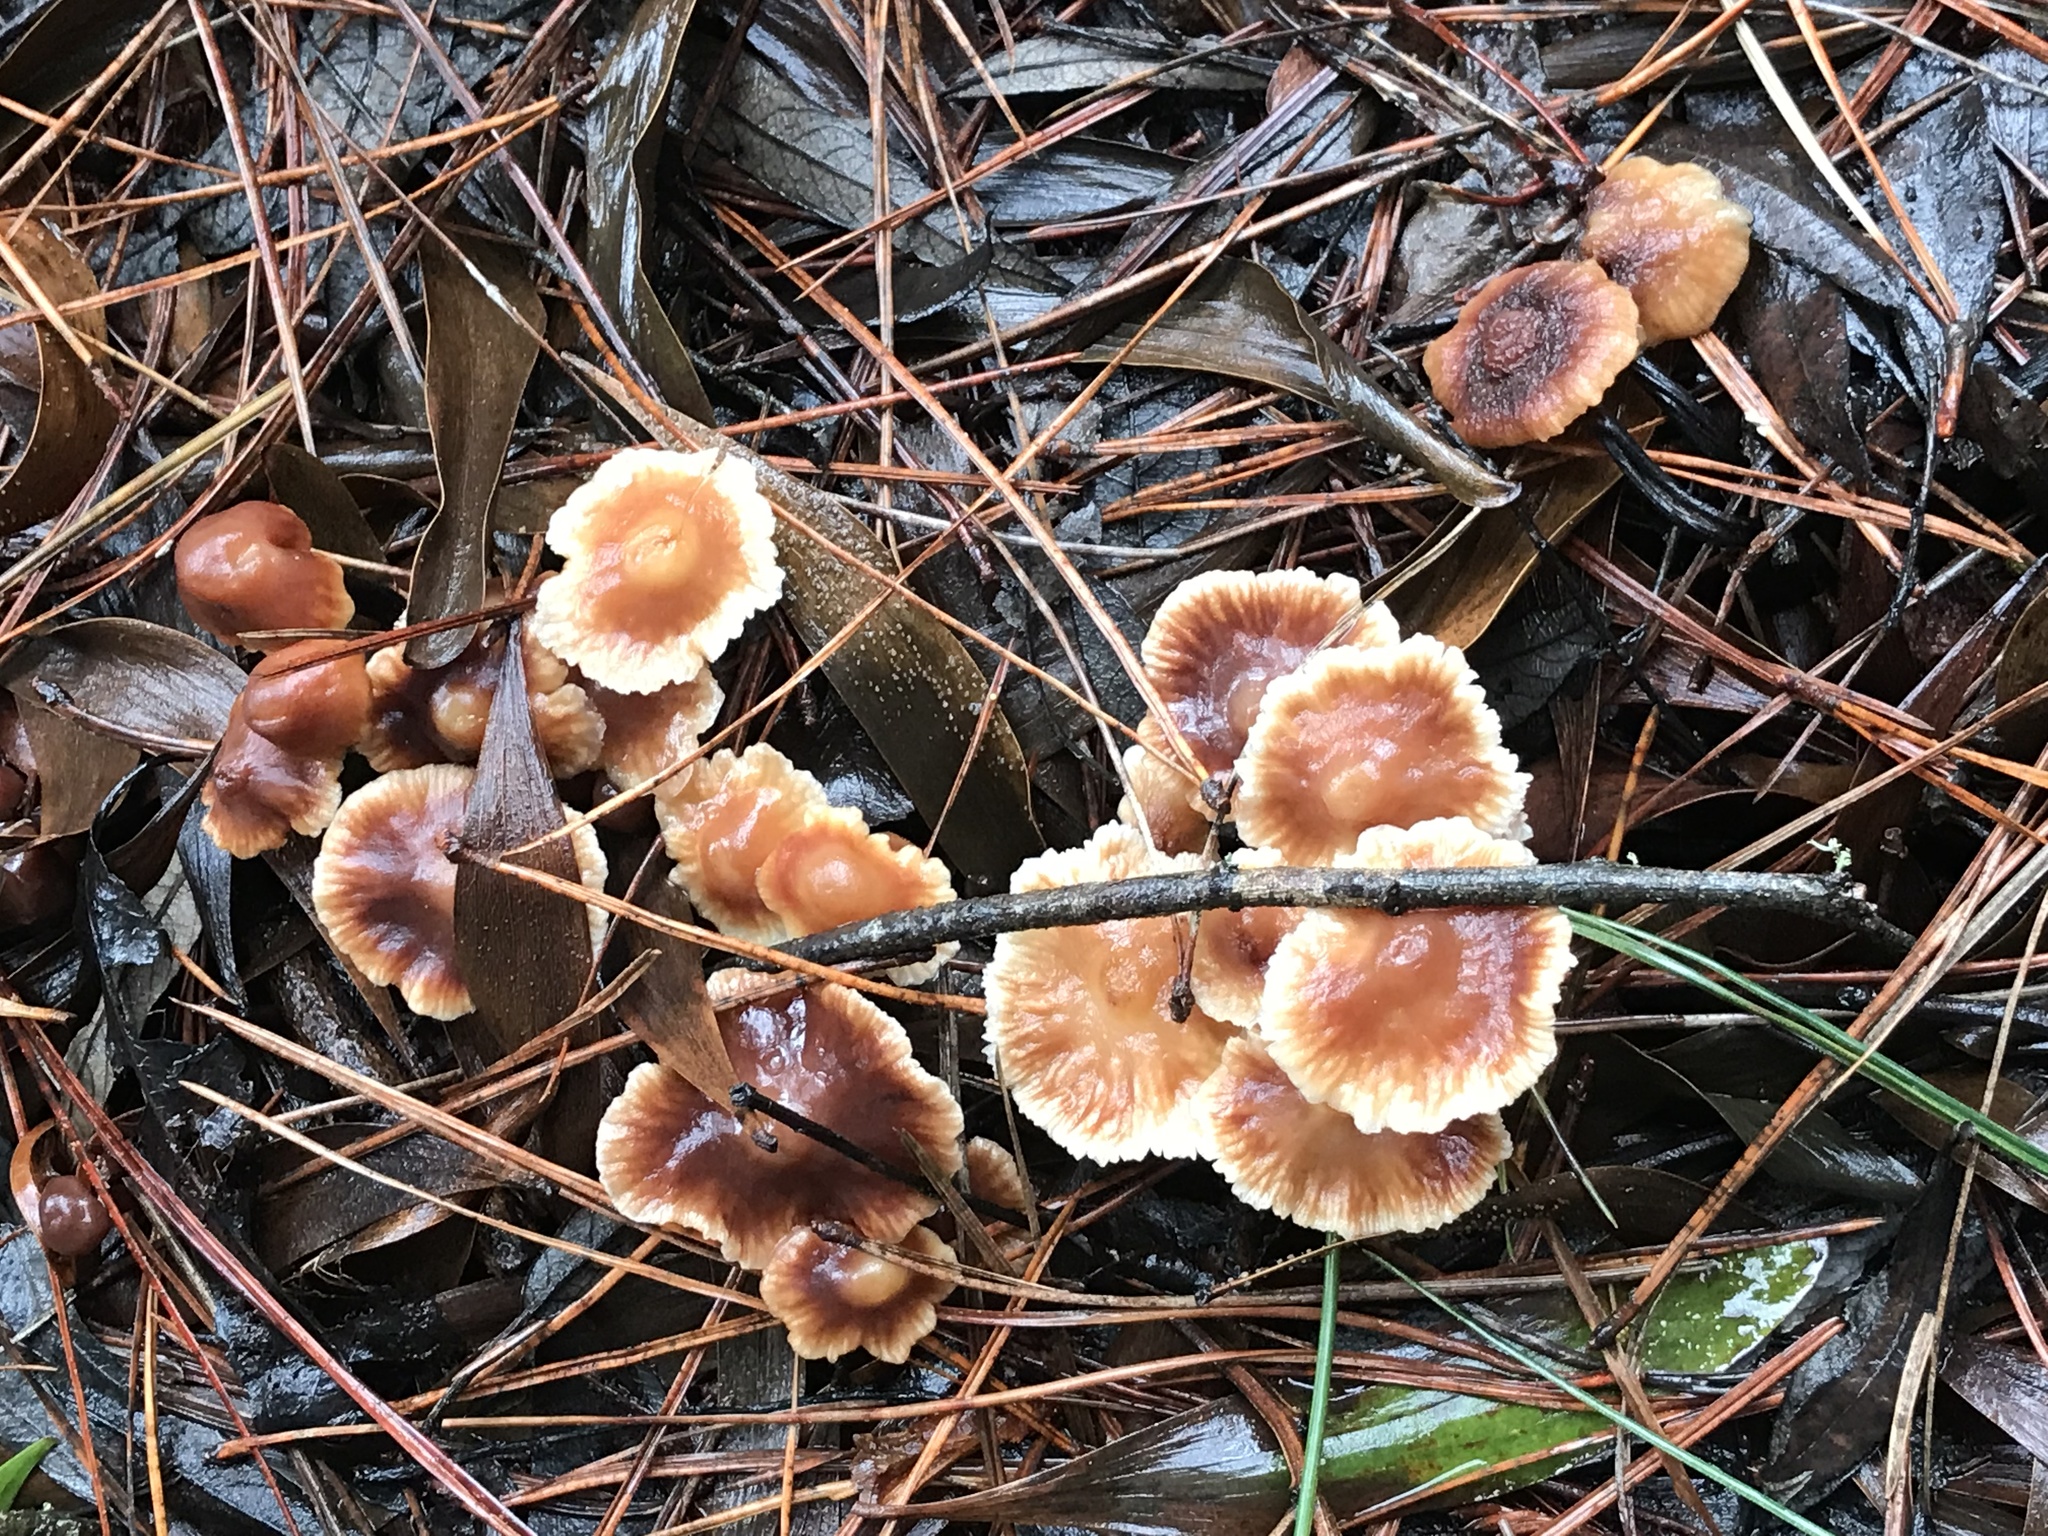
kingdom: Fungi
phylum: Basidiomycota
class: Agaricomycetes
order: Agaricales
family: Omphalotaceae
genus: Gymnopus
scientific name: Gymnopus brassicolens
